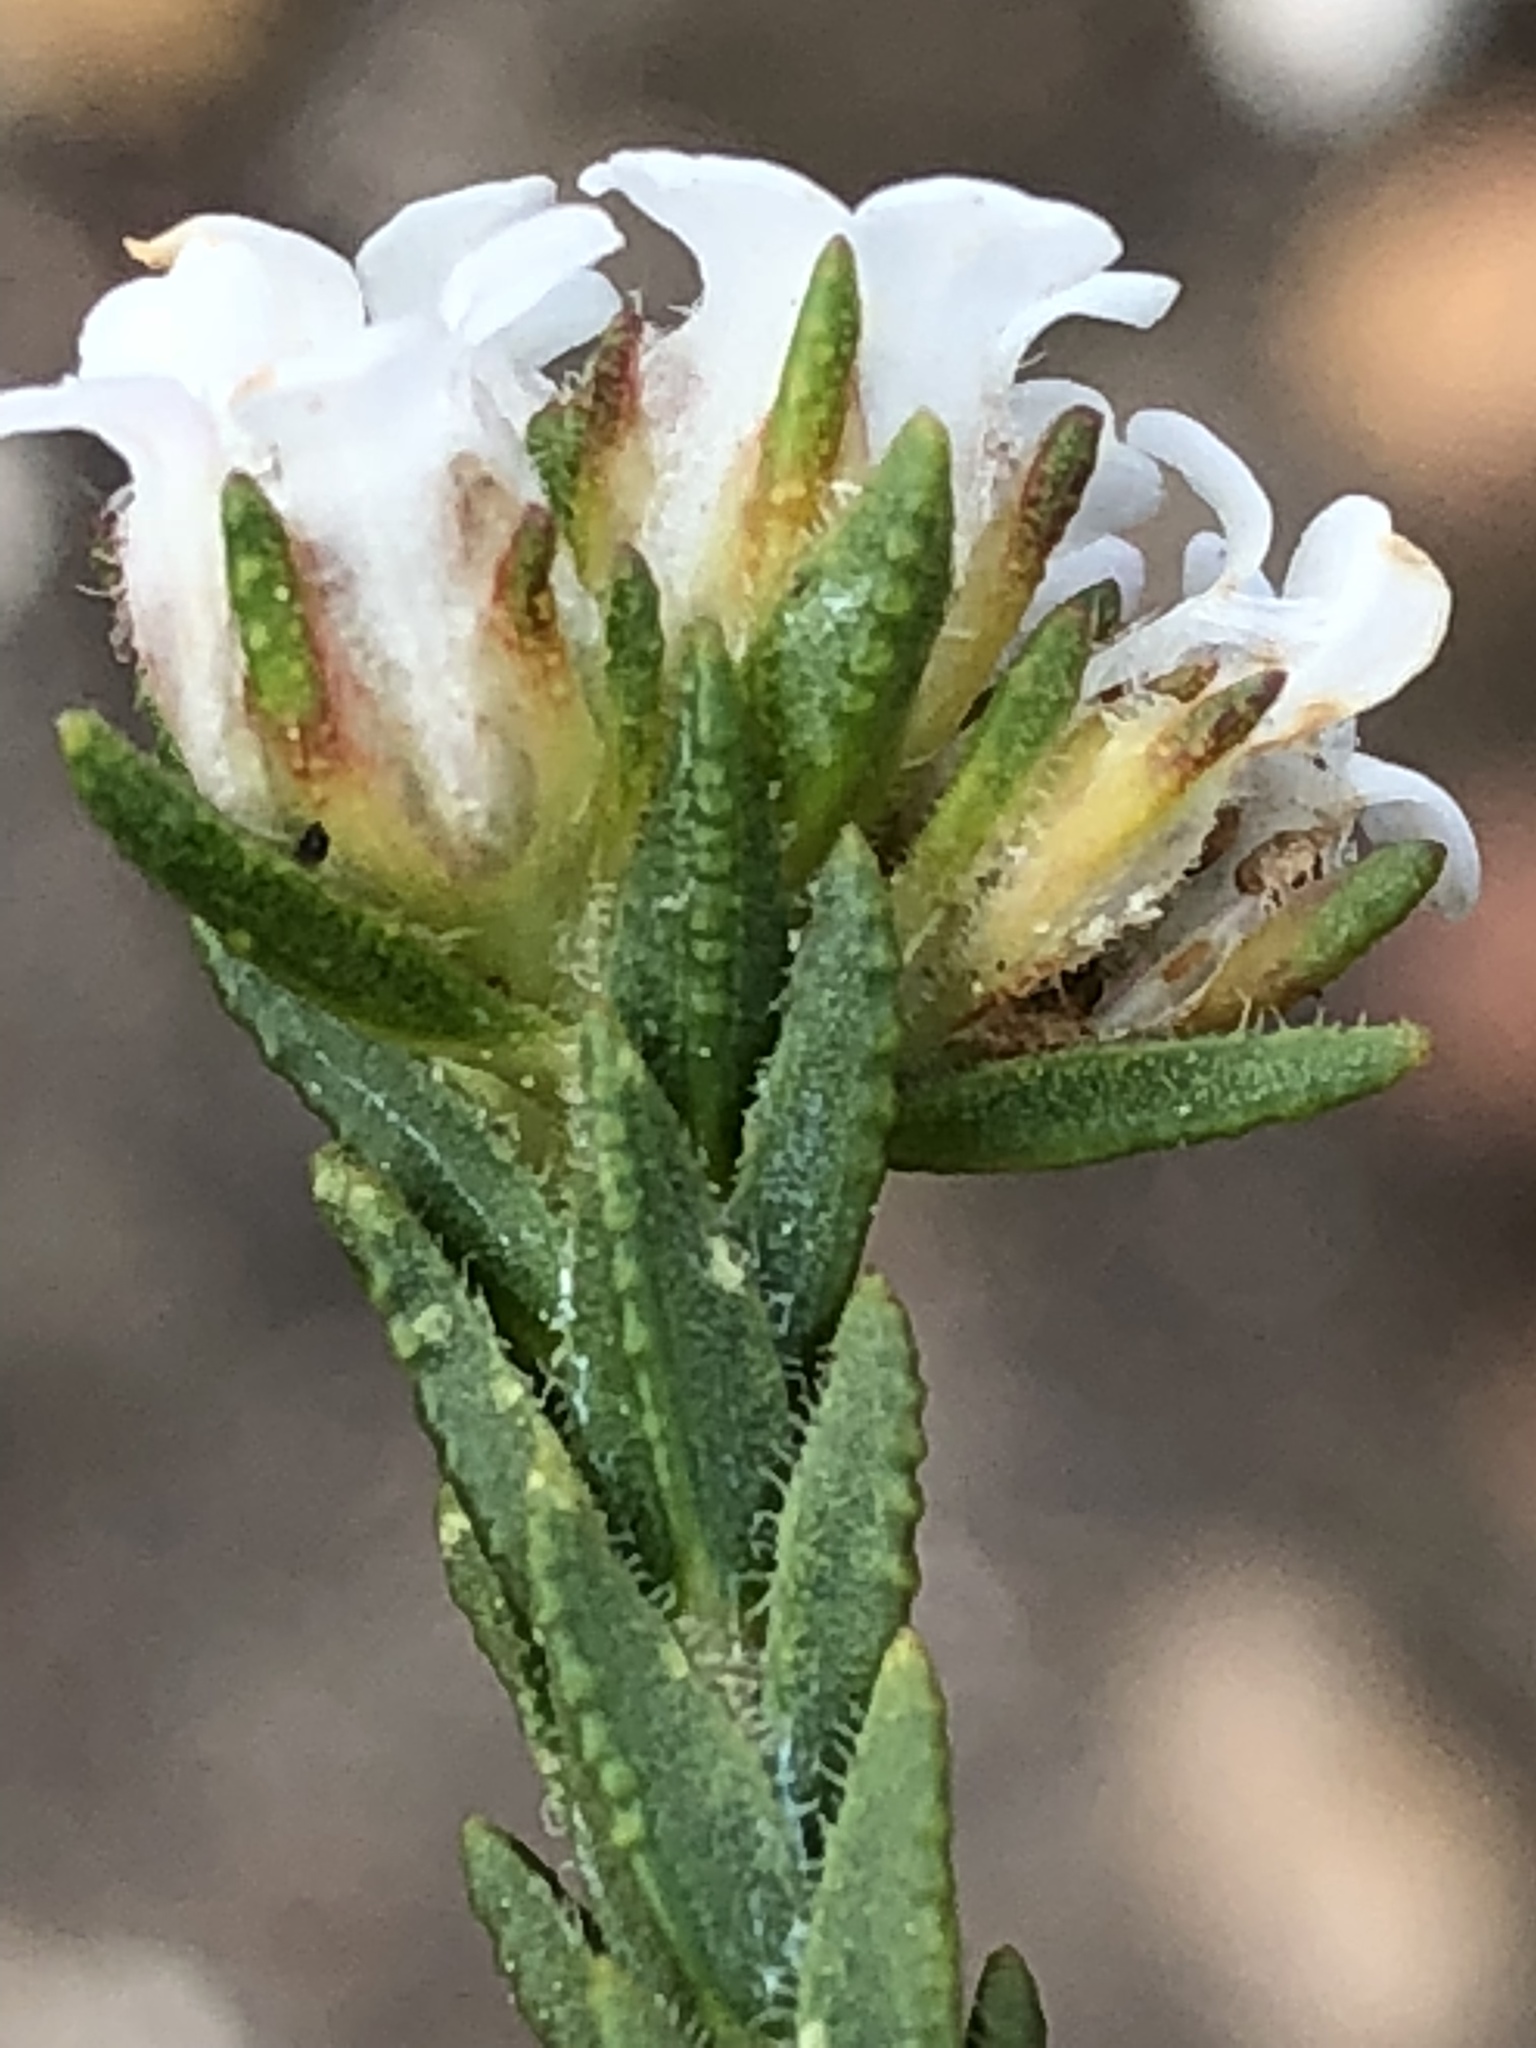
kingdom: Plantae
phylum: Tracheophyta
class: Magnoliopsida
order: Sapindales
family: Rutaceae
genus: Euchaetis
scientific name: Euchaetis scabricosta
